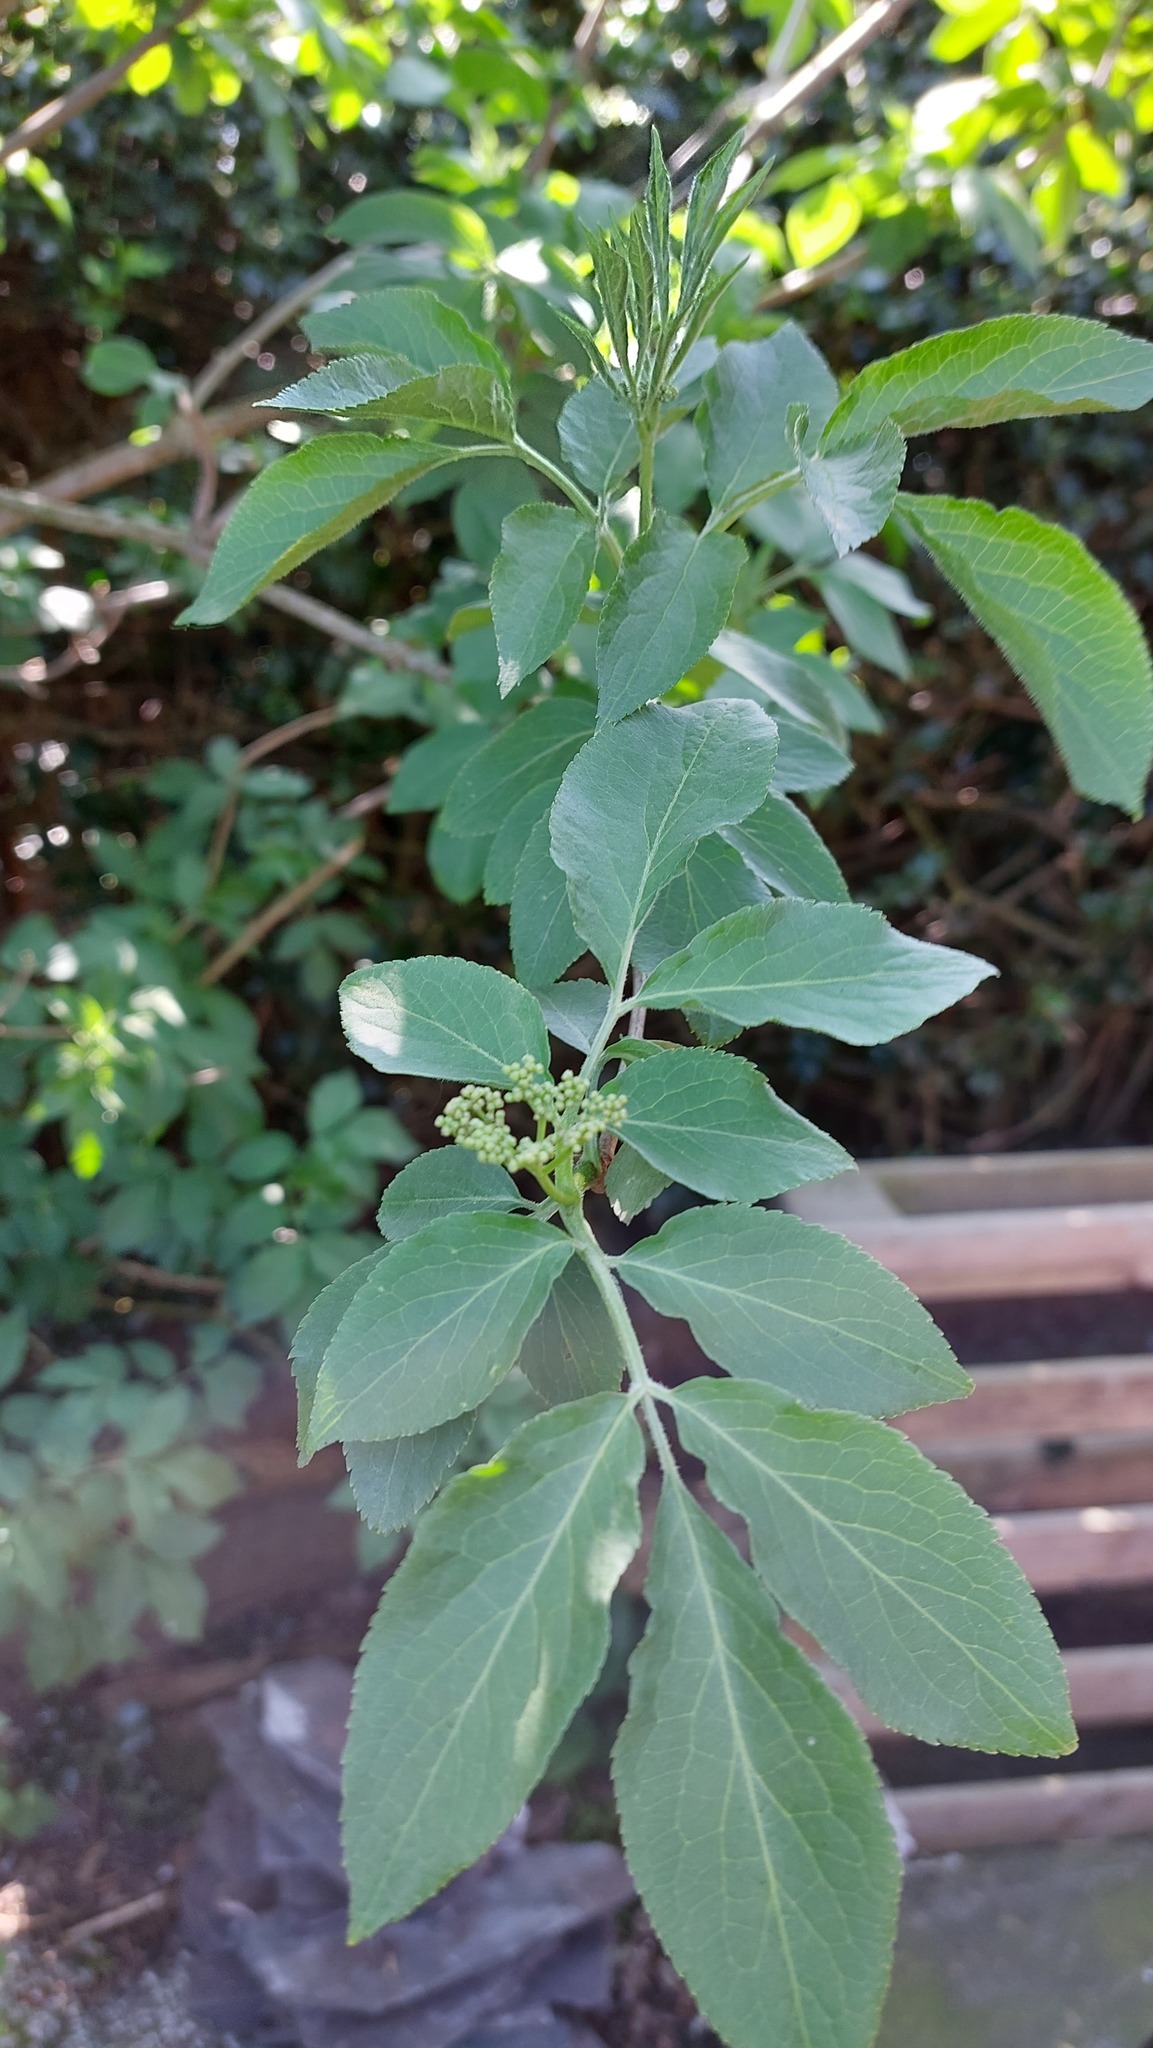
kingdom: Plantae
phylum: Tracheophyta
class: Magnoliopsida
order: Dipsacales
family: Viburnaceae
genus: Sambucus
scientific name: Sambucus nigra
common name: Elder
